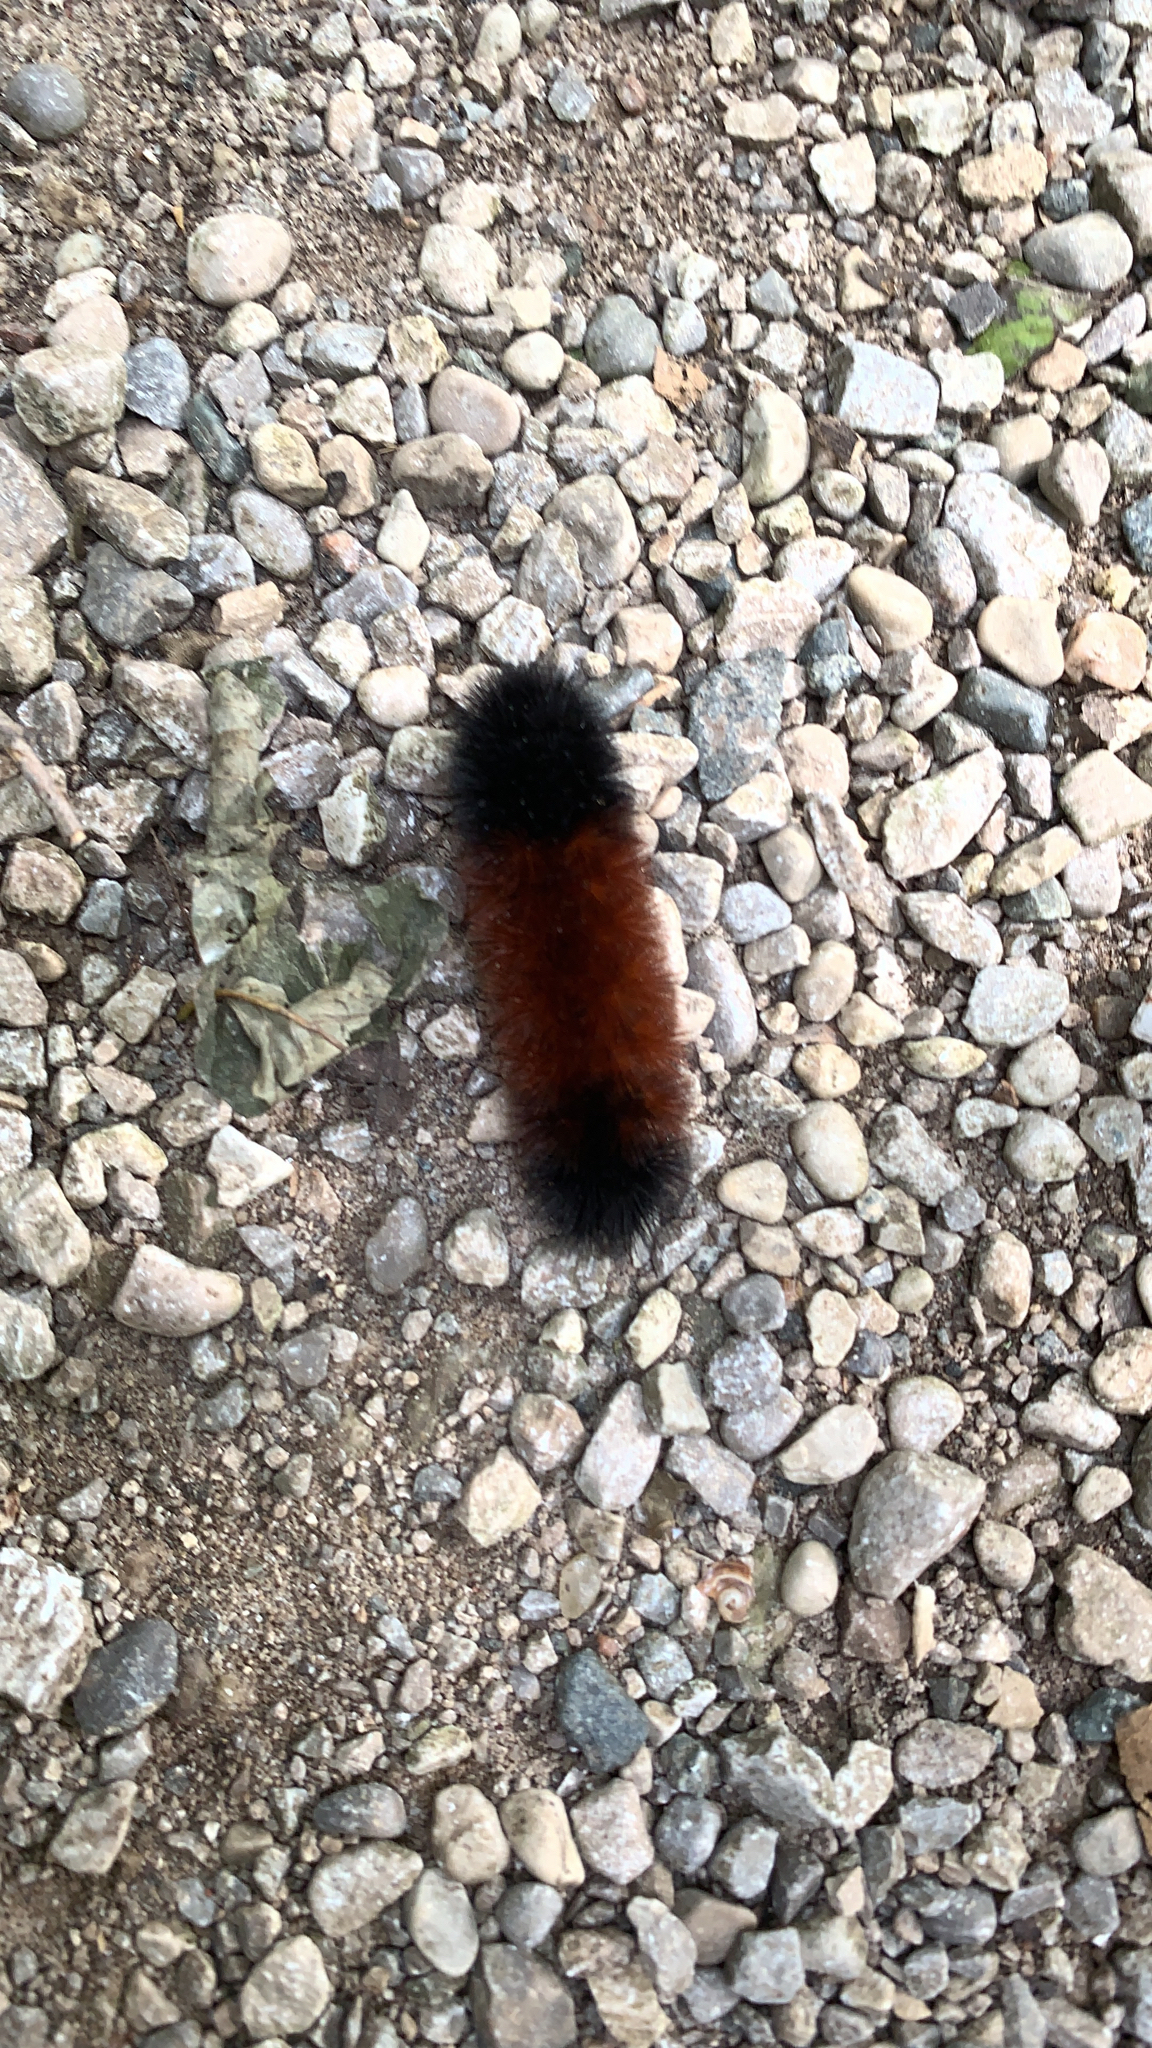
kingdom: Animalia
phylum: Arthropoda
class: Insecta
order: Lepidoptera
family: Erebidae
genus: Pyrrharctia
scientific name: Pyrrharctia isabella
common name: Isabella tiger moth
